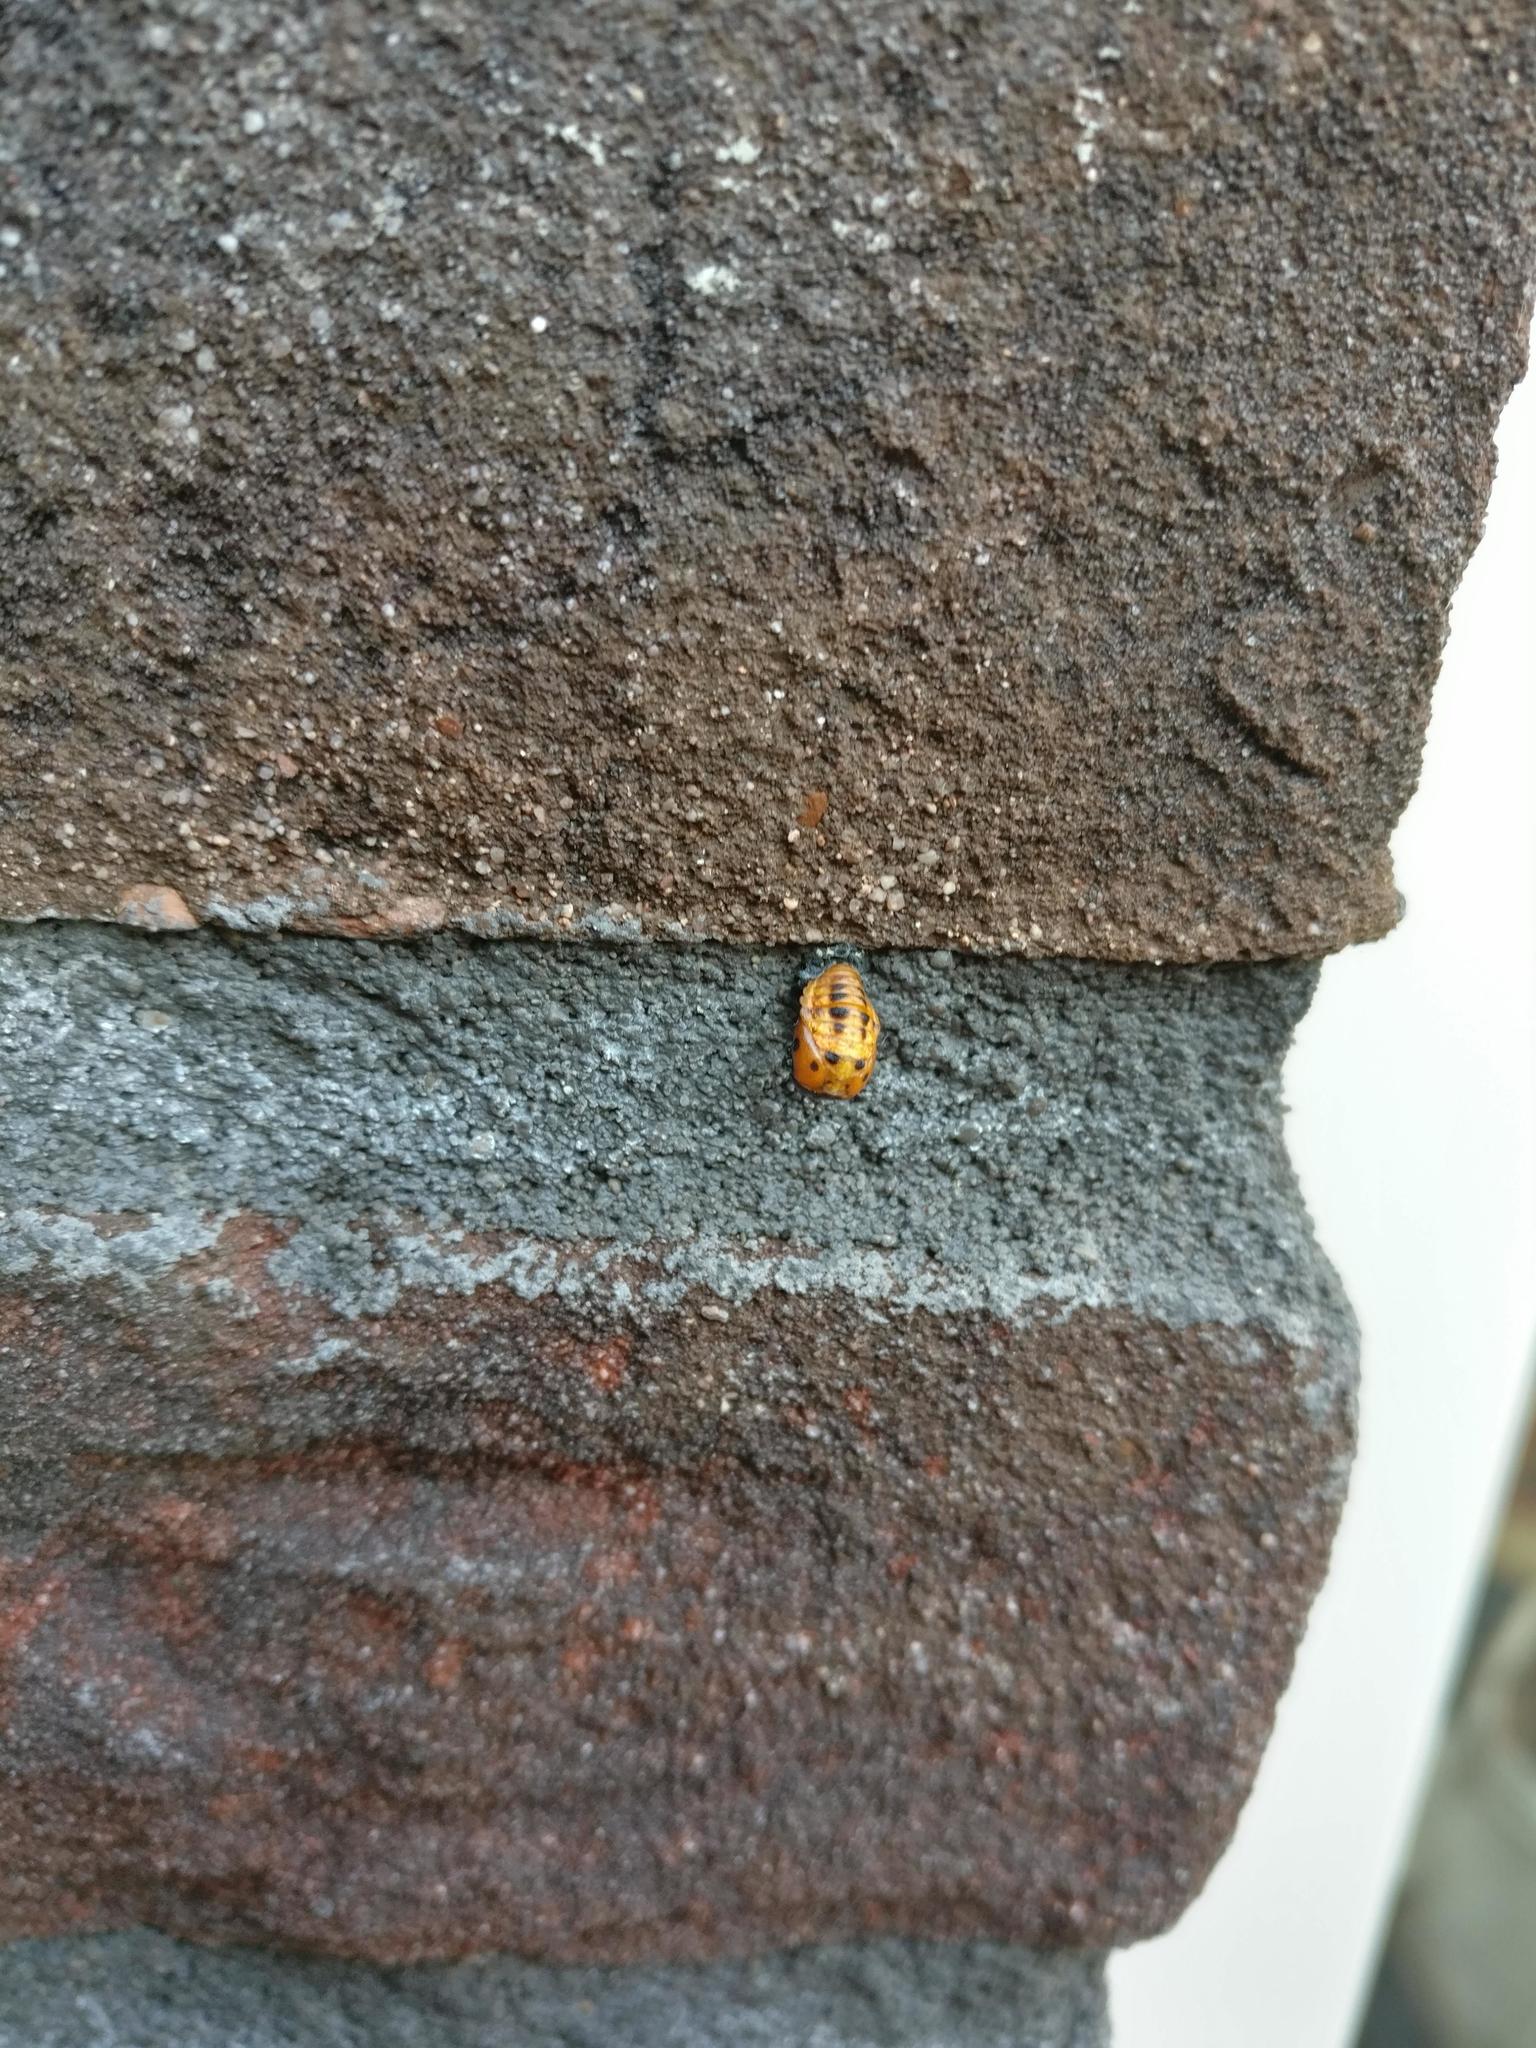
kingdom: Animalia
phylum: Arthropoda
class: Insecta
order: Coleoptera
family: Coccinellidae
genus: Coccinella
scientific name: Coccinella septempunctata
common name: Sevenspotted lady beetle
